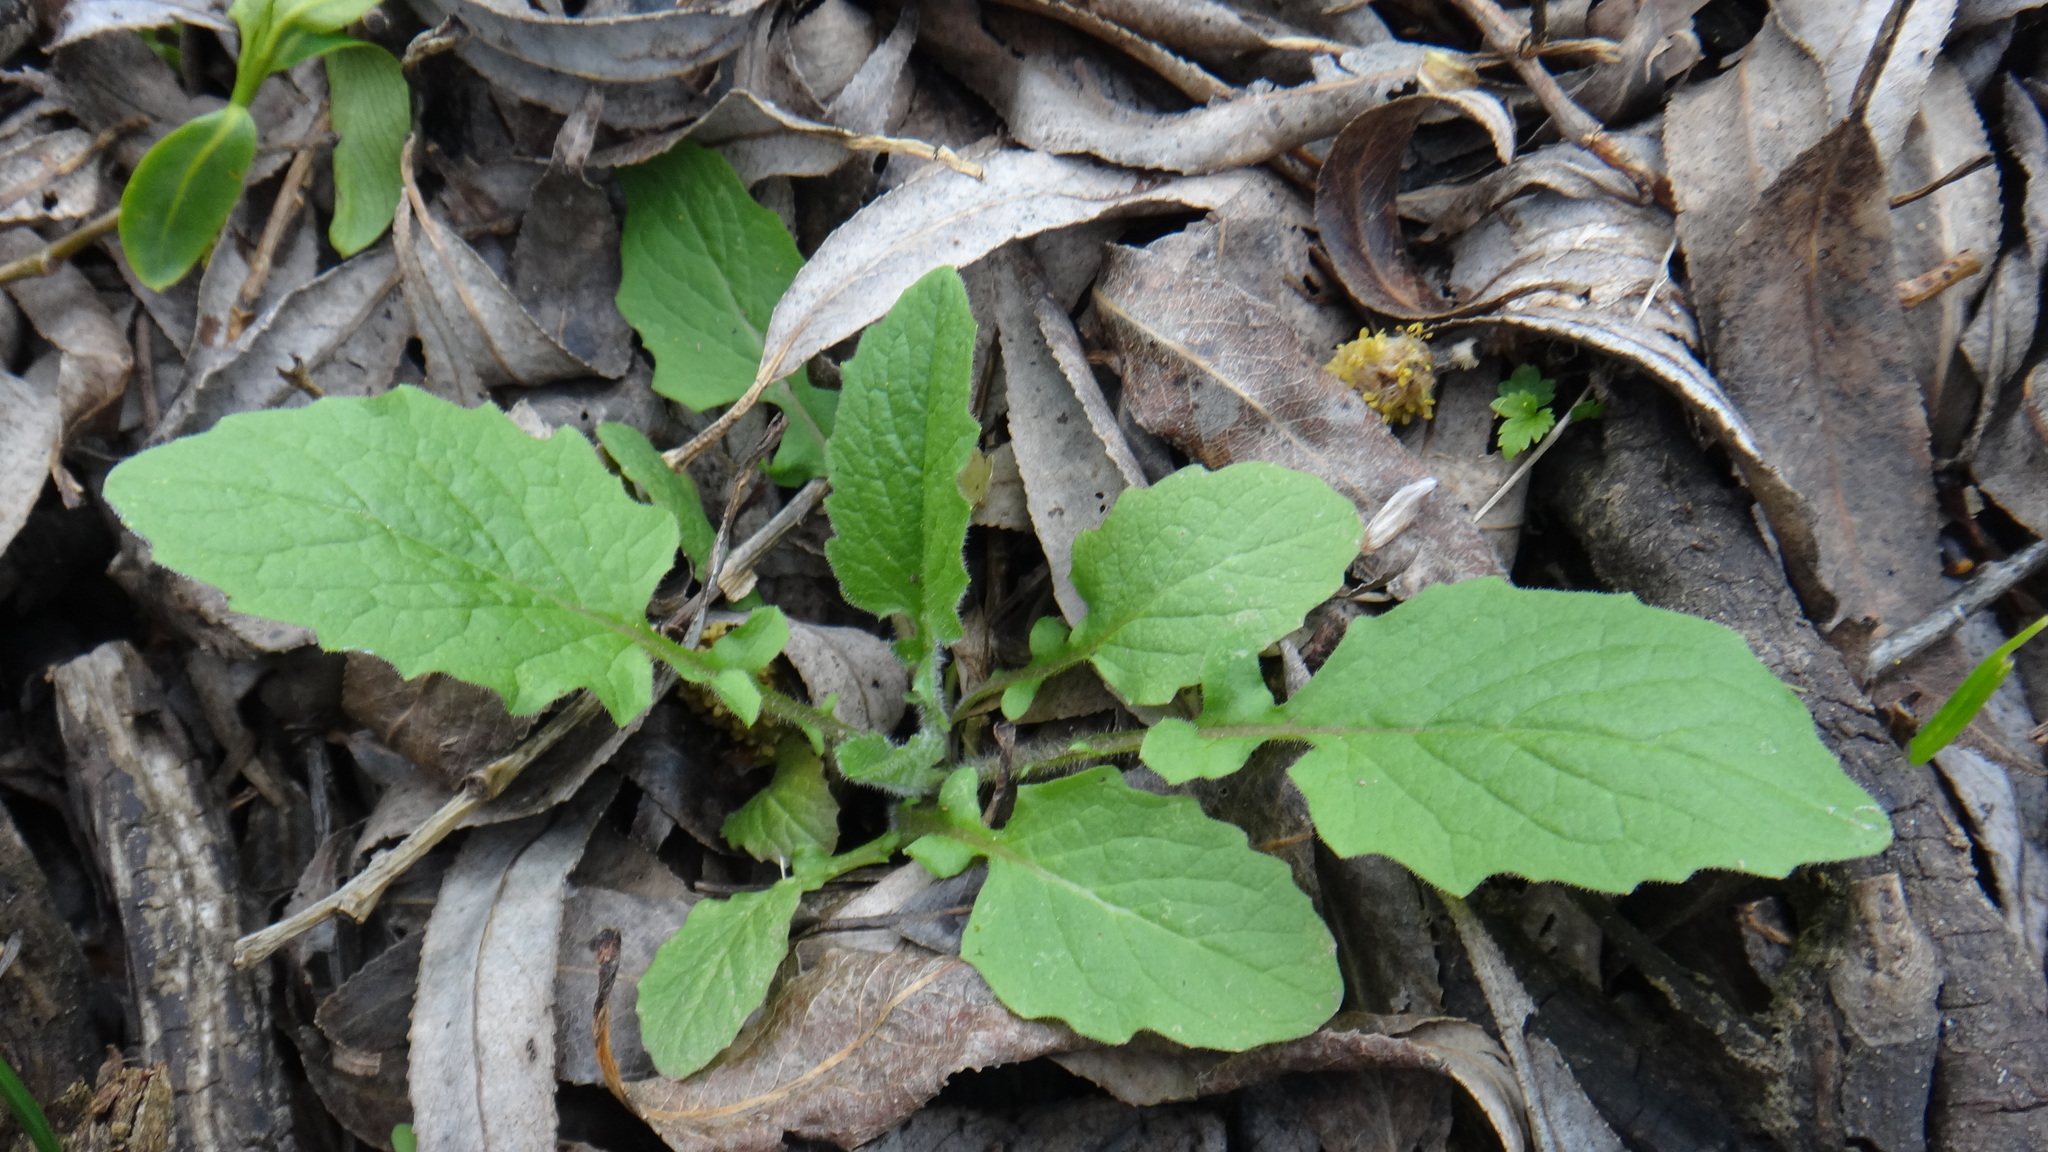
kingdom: Plantae
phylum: Tracheophyta
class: Magnoliopsida
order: Asterales
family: Asteraceae
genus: Lapsana
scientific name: Lapsana communis
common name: Nipplewort
